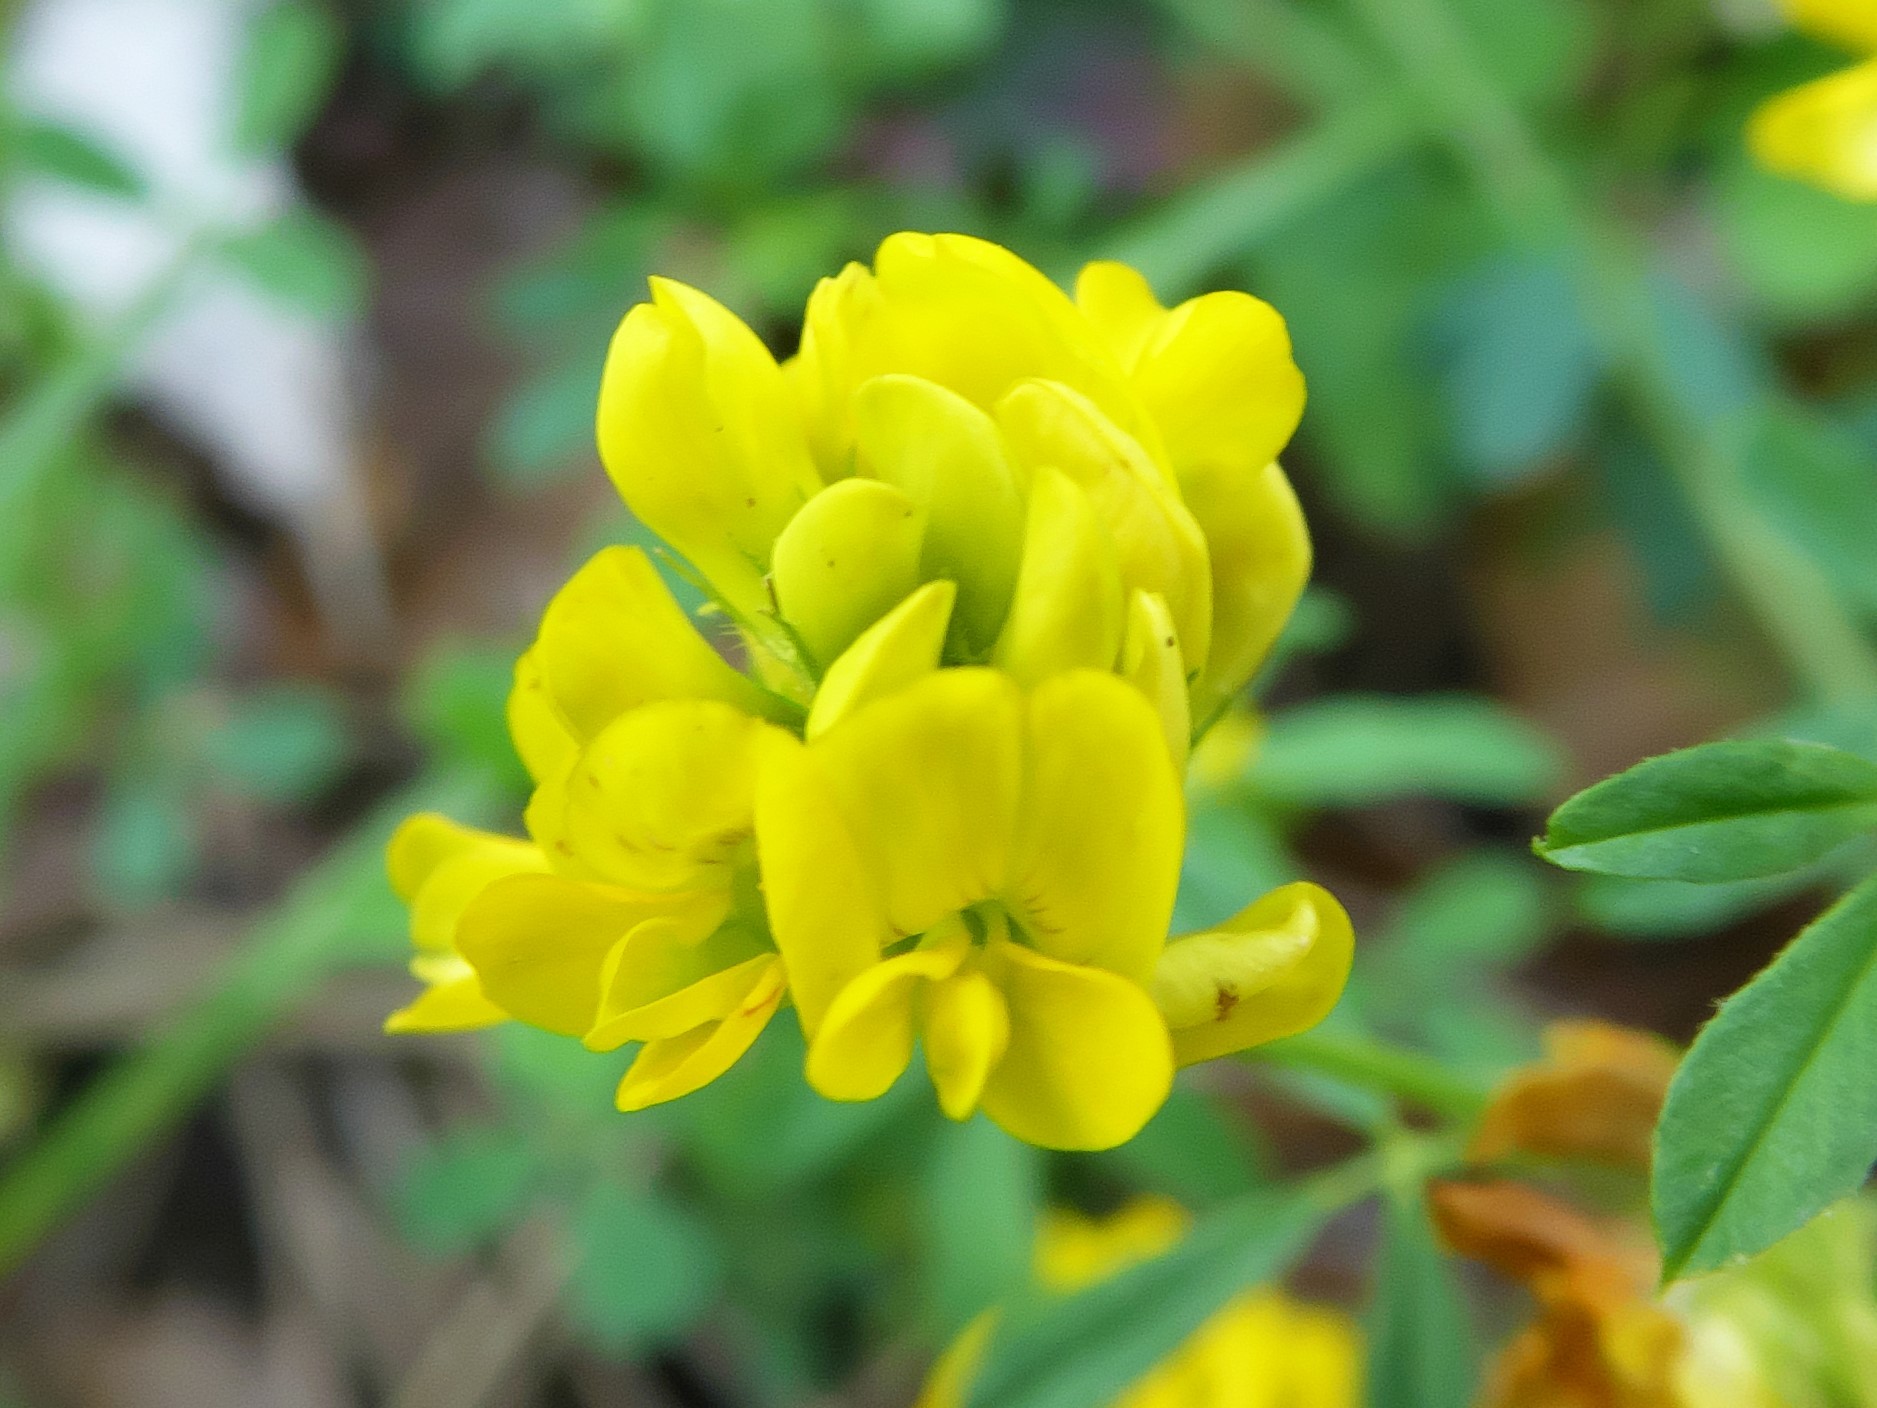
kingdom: Plantae
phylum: Tracheophyta
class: Magnoliopsida
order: Fabales
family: Fabaceae
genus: Medicago
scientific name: Medicago falcata
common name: Sickle medick
